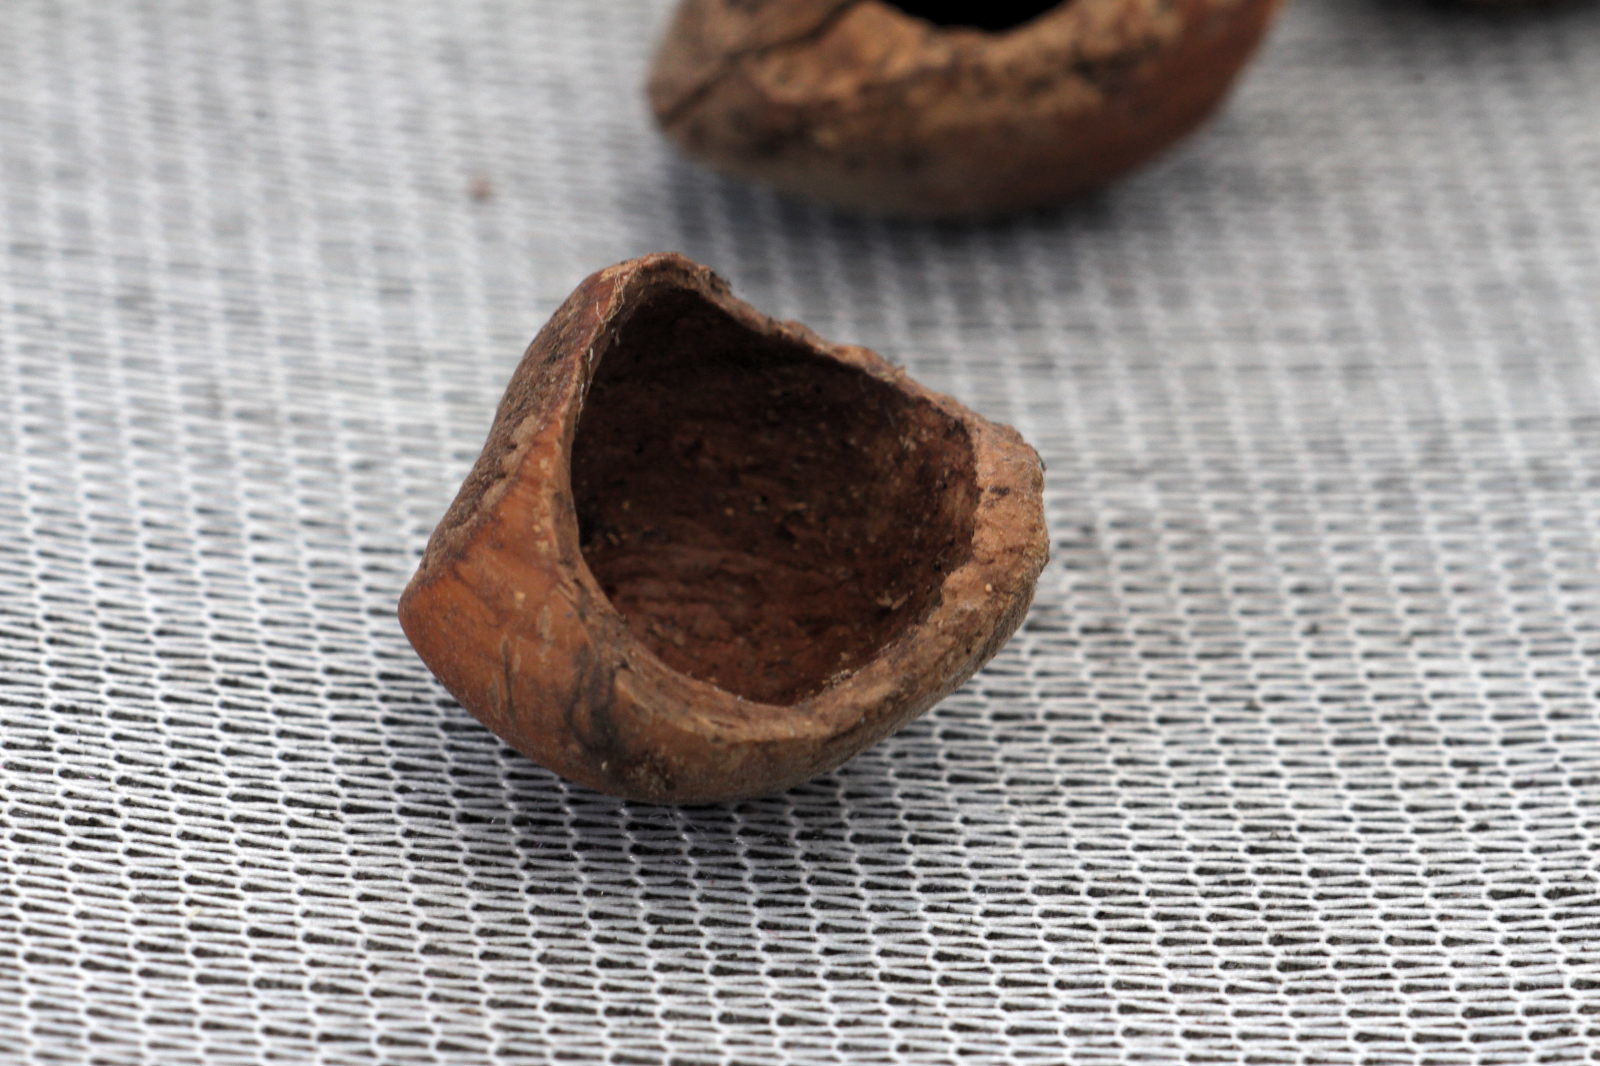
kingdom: Animalia
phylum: Chordata
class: Mammalia
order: Rodentia
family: Gliridae
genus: Muscardinus
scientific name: Muscardinus avellanarius
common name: Hazel dormouse
